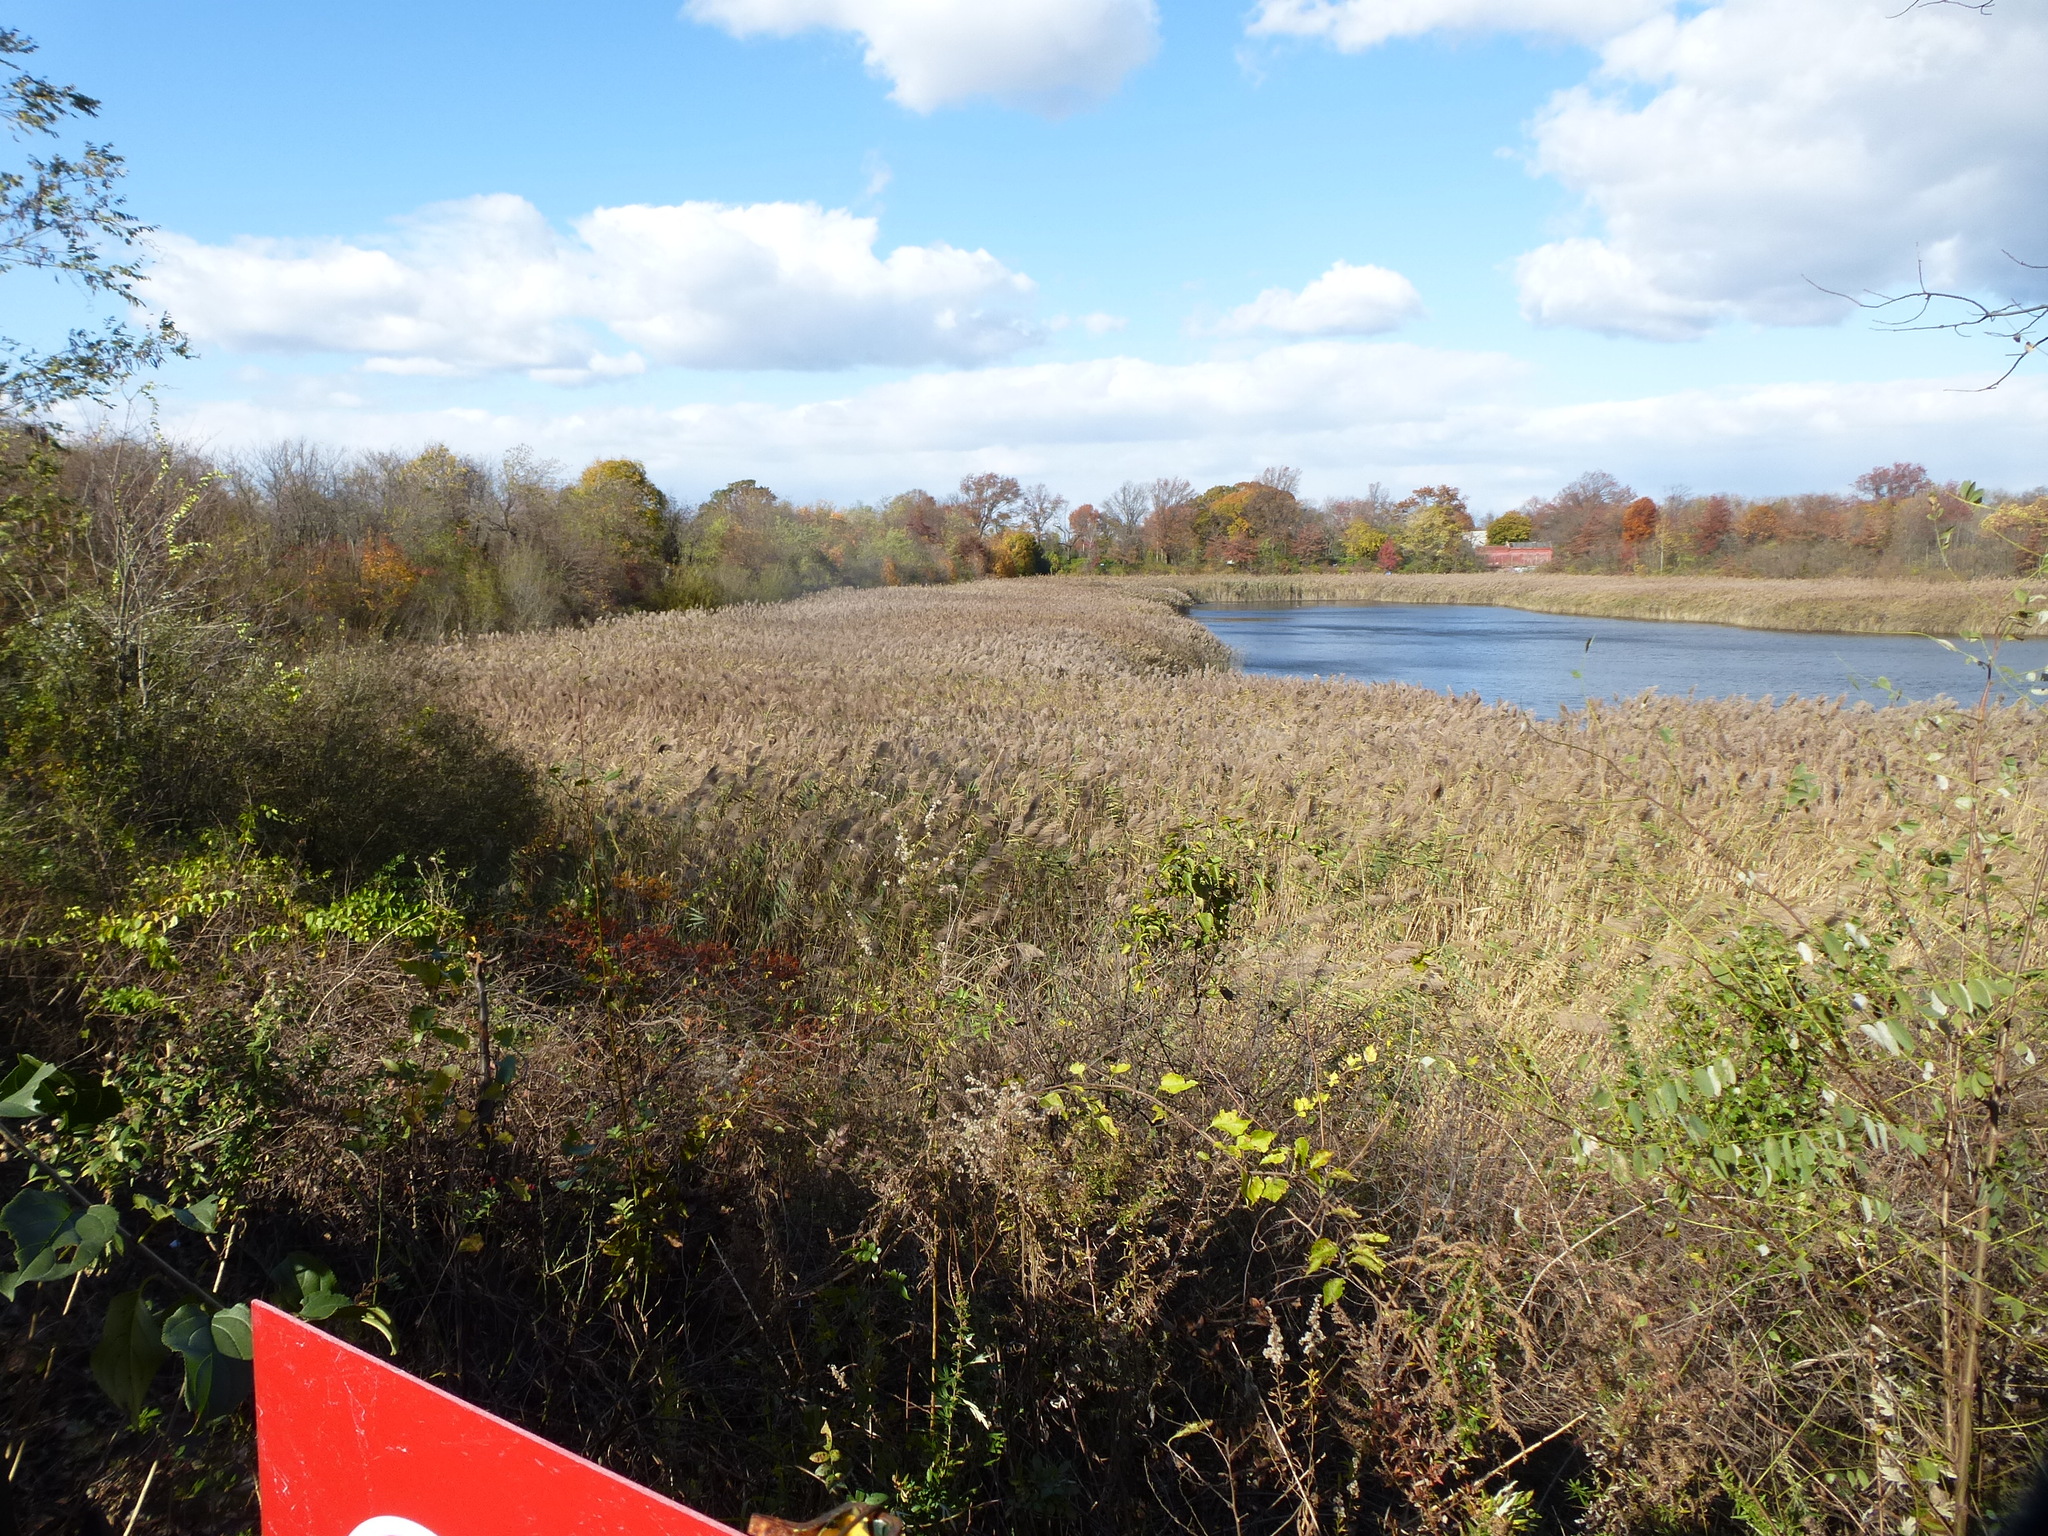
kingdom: Plantae
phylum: Tracheophyta
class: Liliopsida
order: Poales
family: Poaceae
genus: Phragmites
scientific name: Phragmites australis
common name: Common reed
